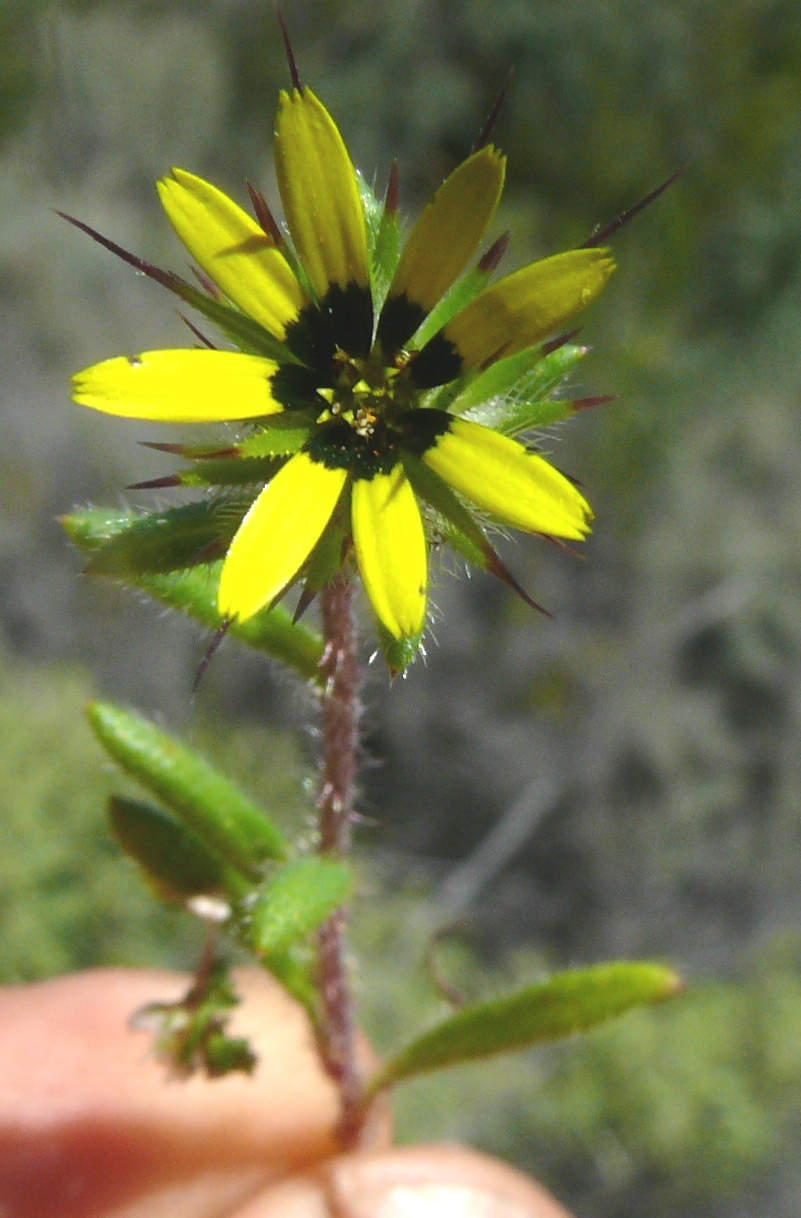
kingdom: Plantae
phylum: Tracheophyta
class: Magnoliopsida
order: Asterales
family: Asteraceae
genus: Gorteria
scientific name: Gorteria personata
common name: Gorteria
